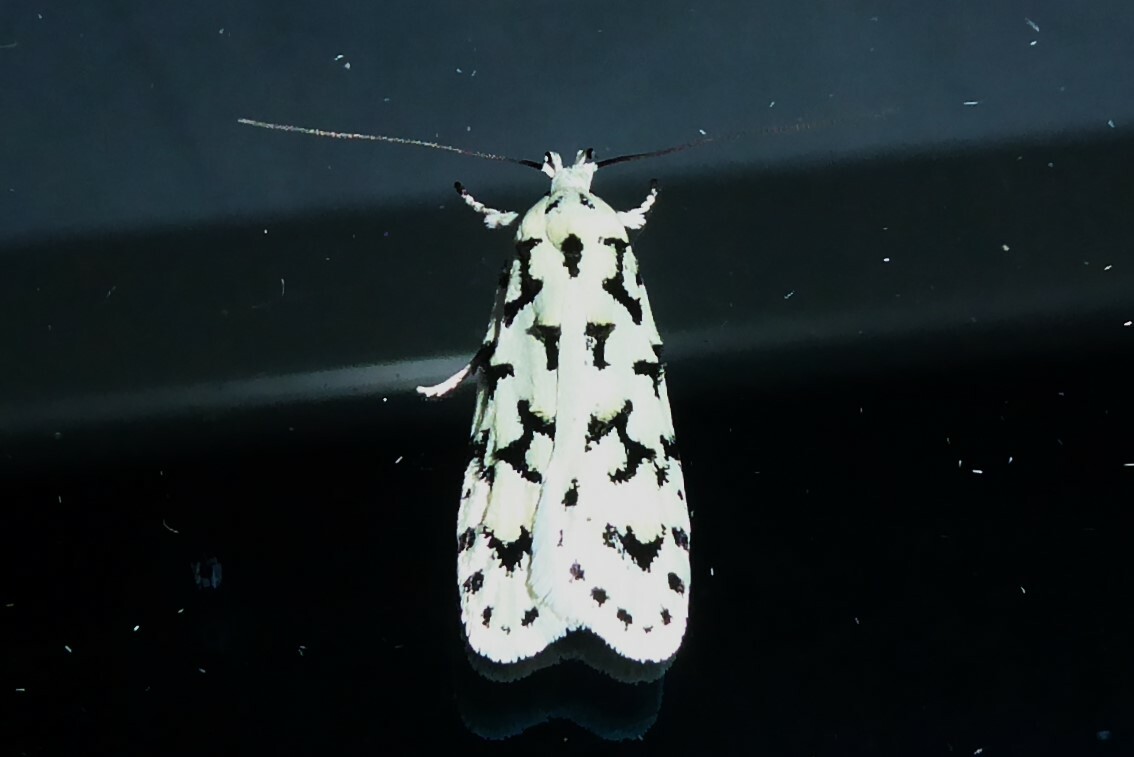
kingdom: Animalia
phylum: Arthropoda
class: Insecta
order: Lepidoptera
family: Oecophoridae
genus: Izatha
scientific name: Izatha huttoni
